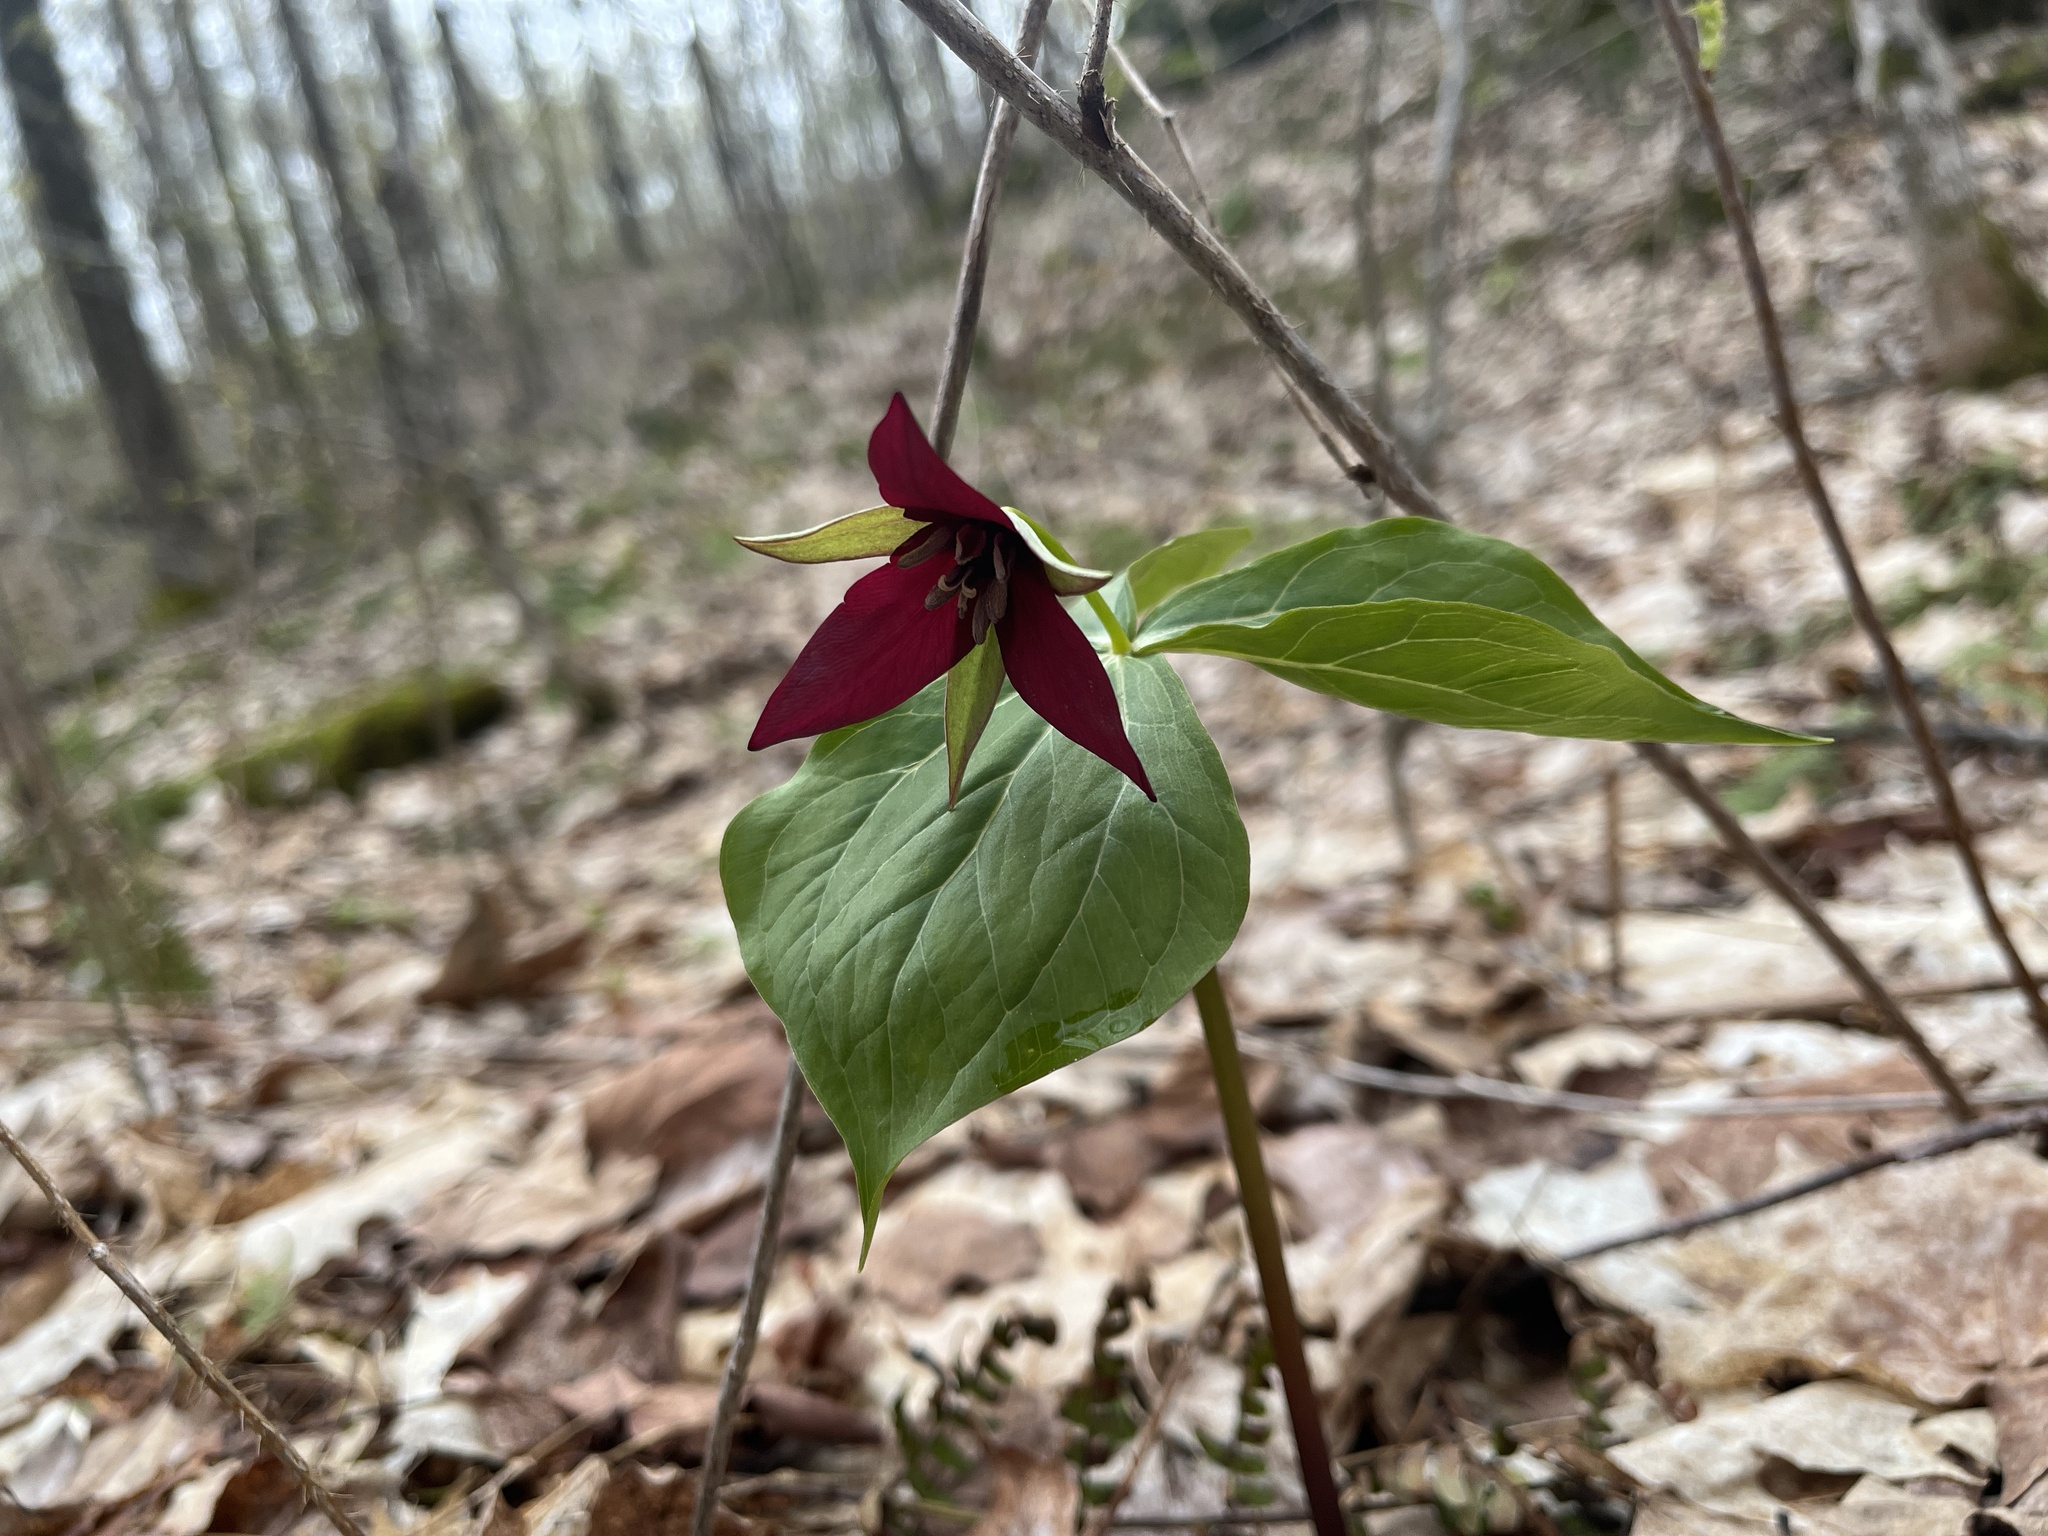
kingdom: Plantae
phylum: Tracheophyta
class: Liliopsida
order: Liliales
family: Melanthiaceae
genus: Trillium
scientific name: Trillium erectum
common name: Purple trillium
